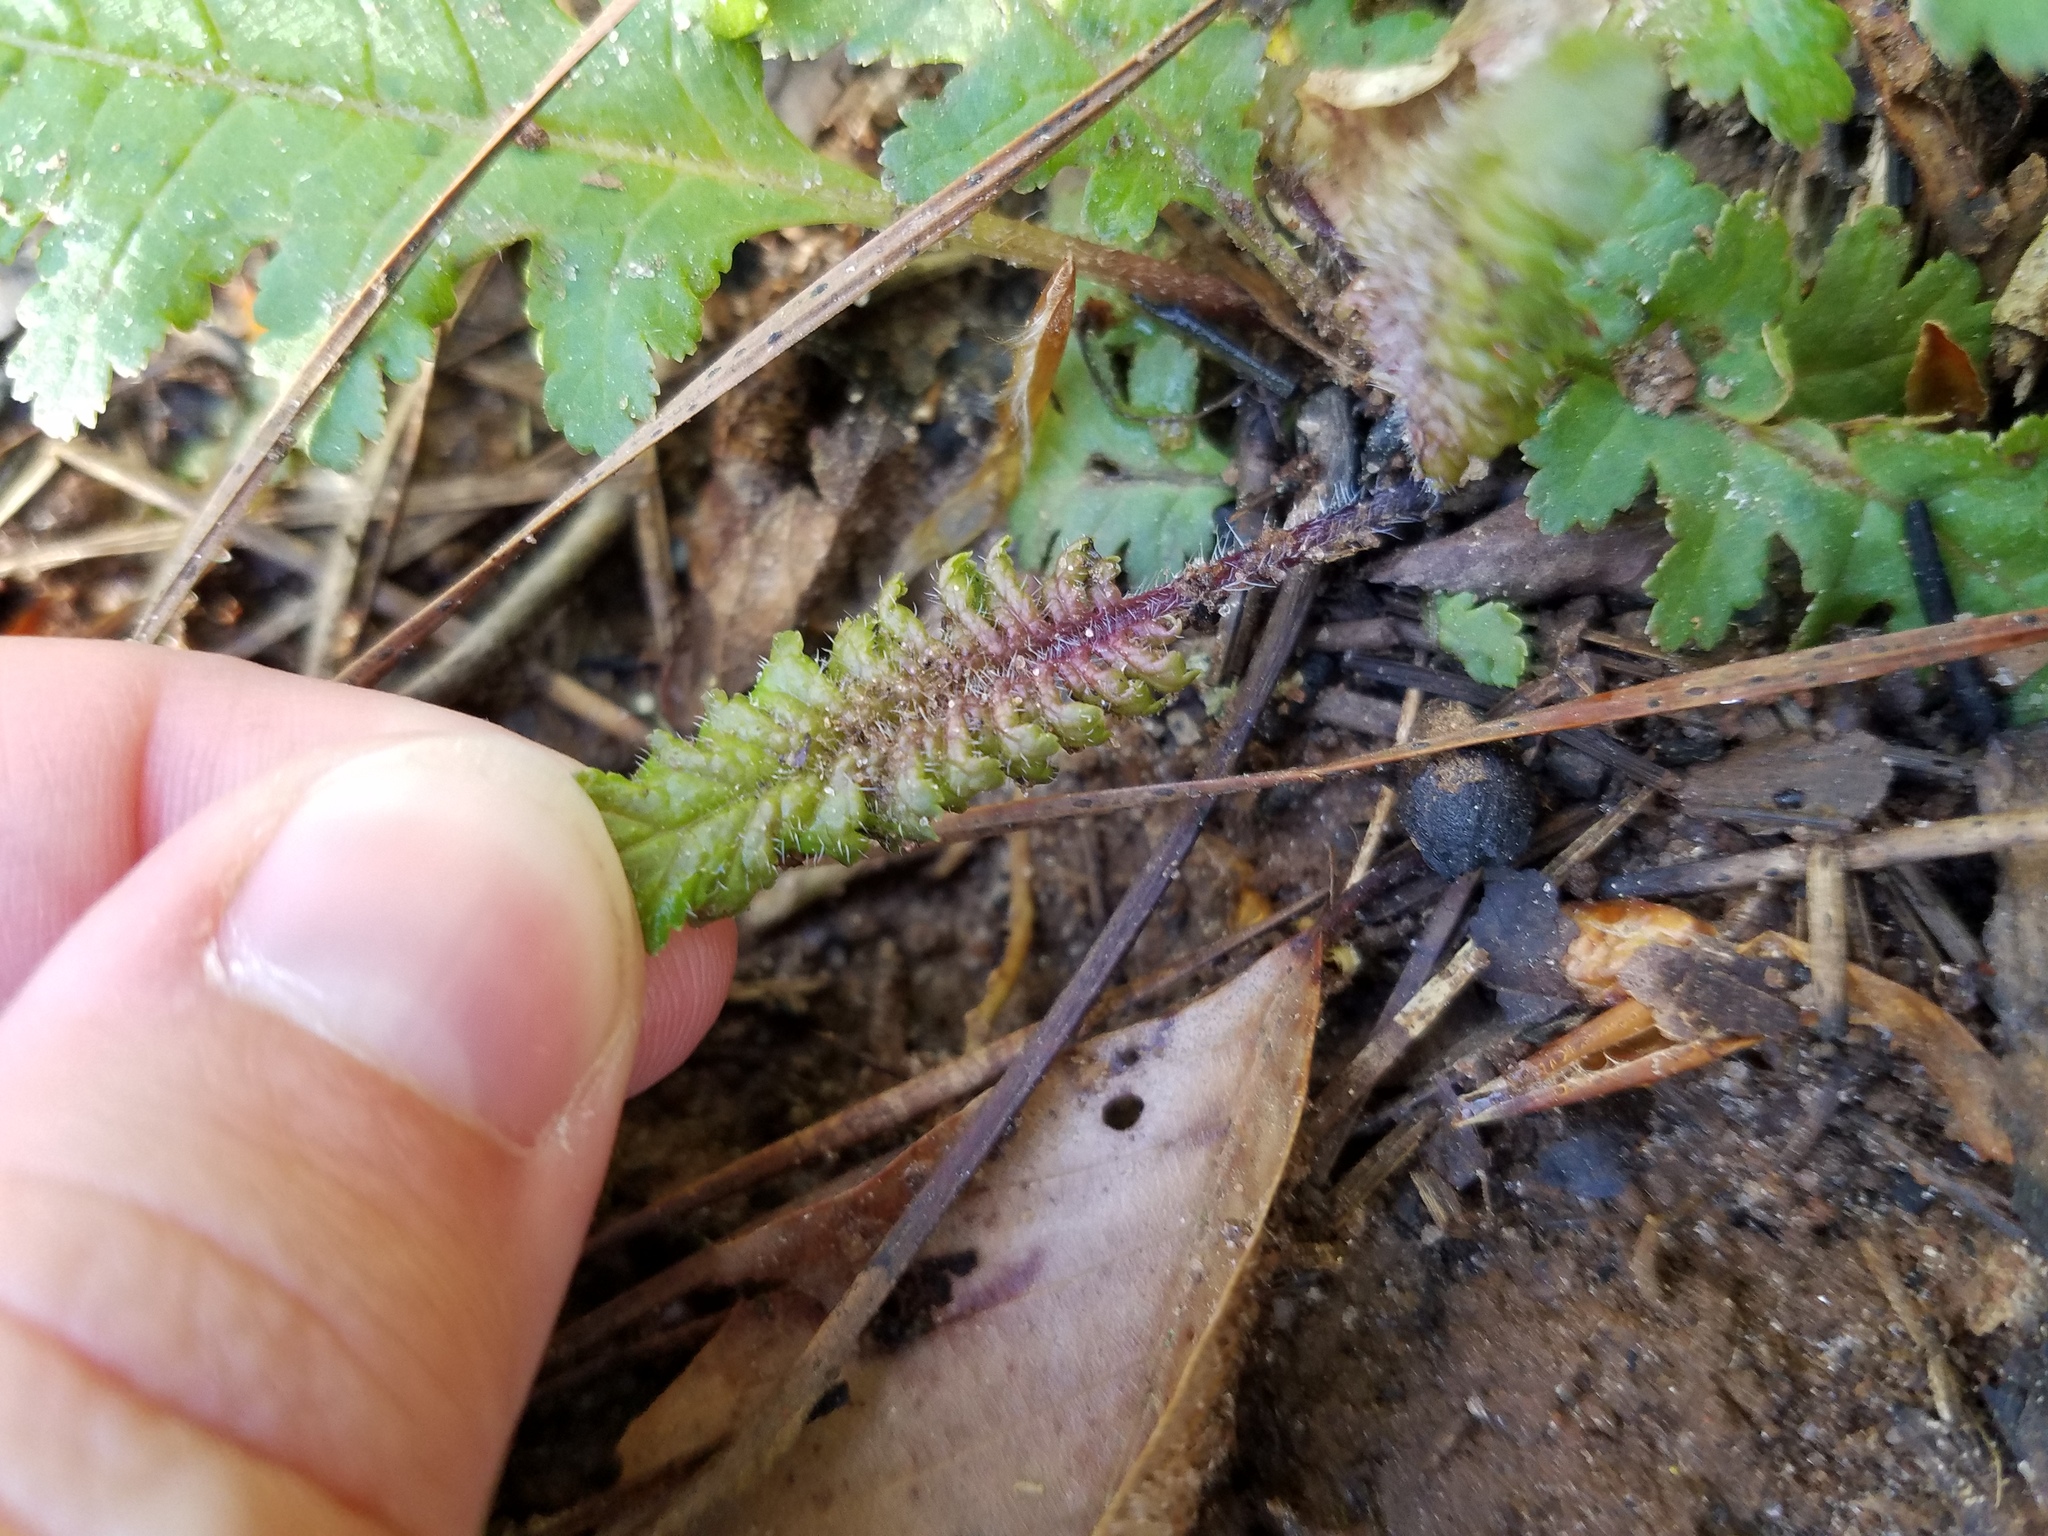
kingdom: Plantae
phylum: Tracheophyta
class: Magnoliopsida
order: Lamiales
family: Orobanchaceae
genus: Pedicularis
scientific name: Pedicularis canadensis
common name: Early lousewort
